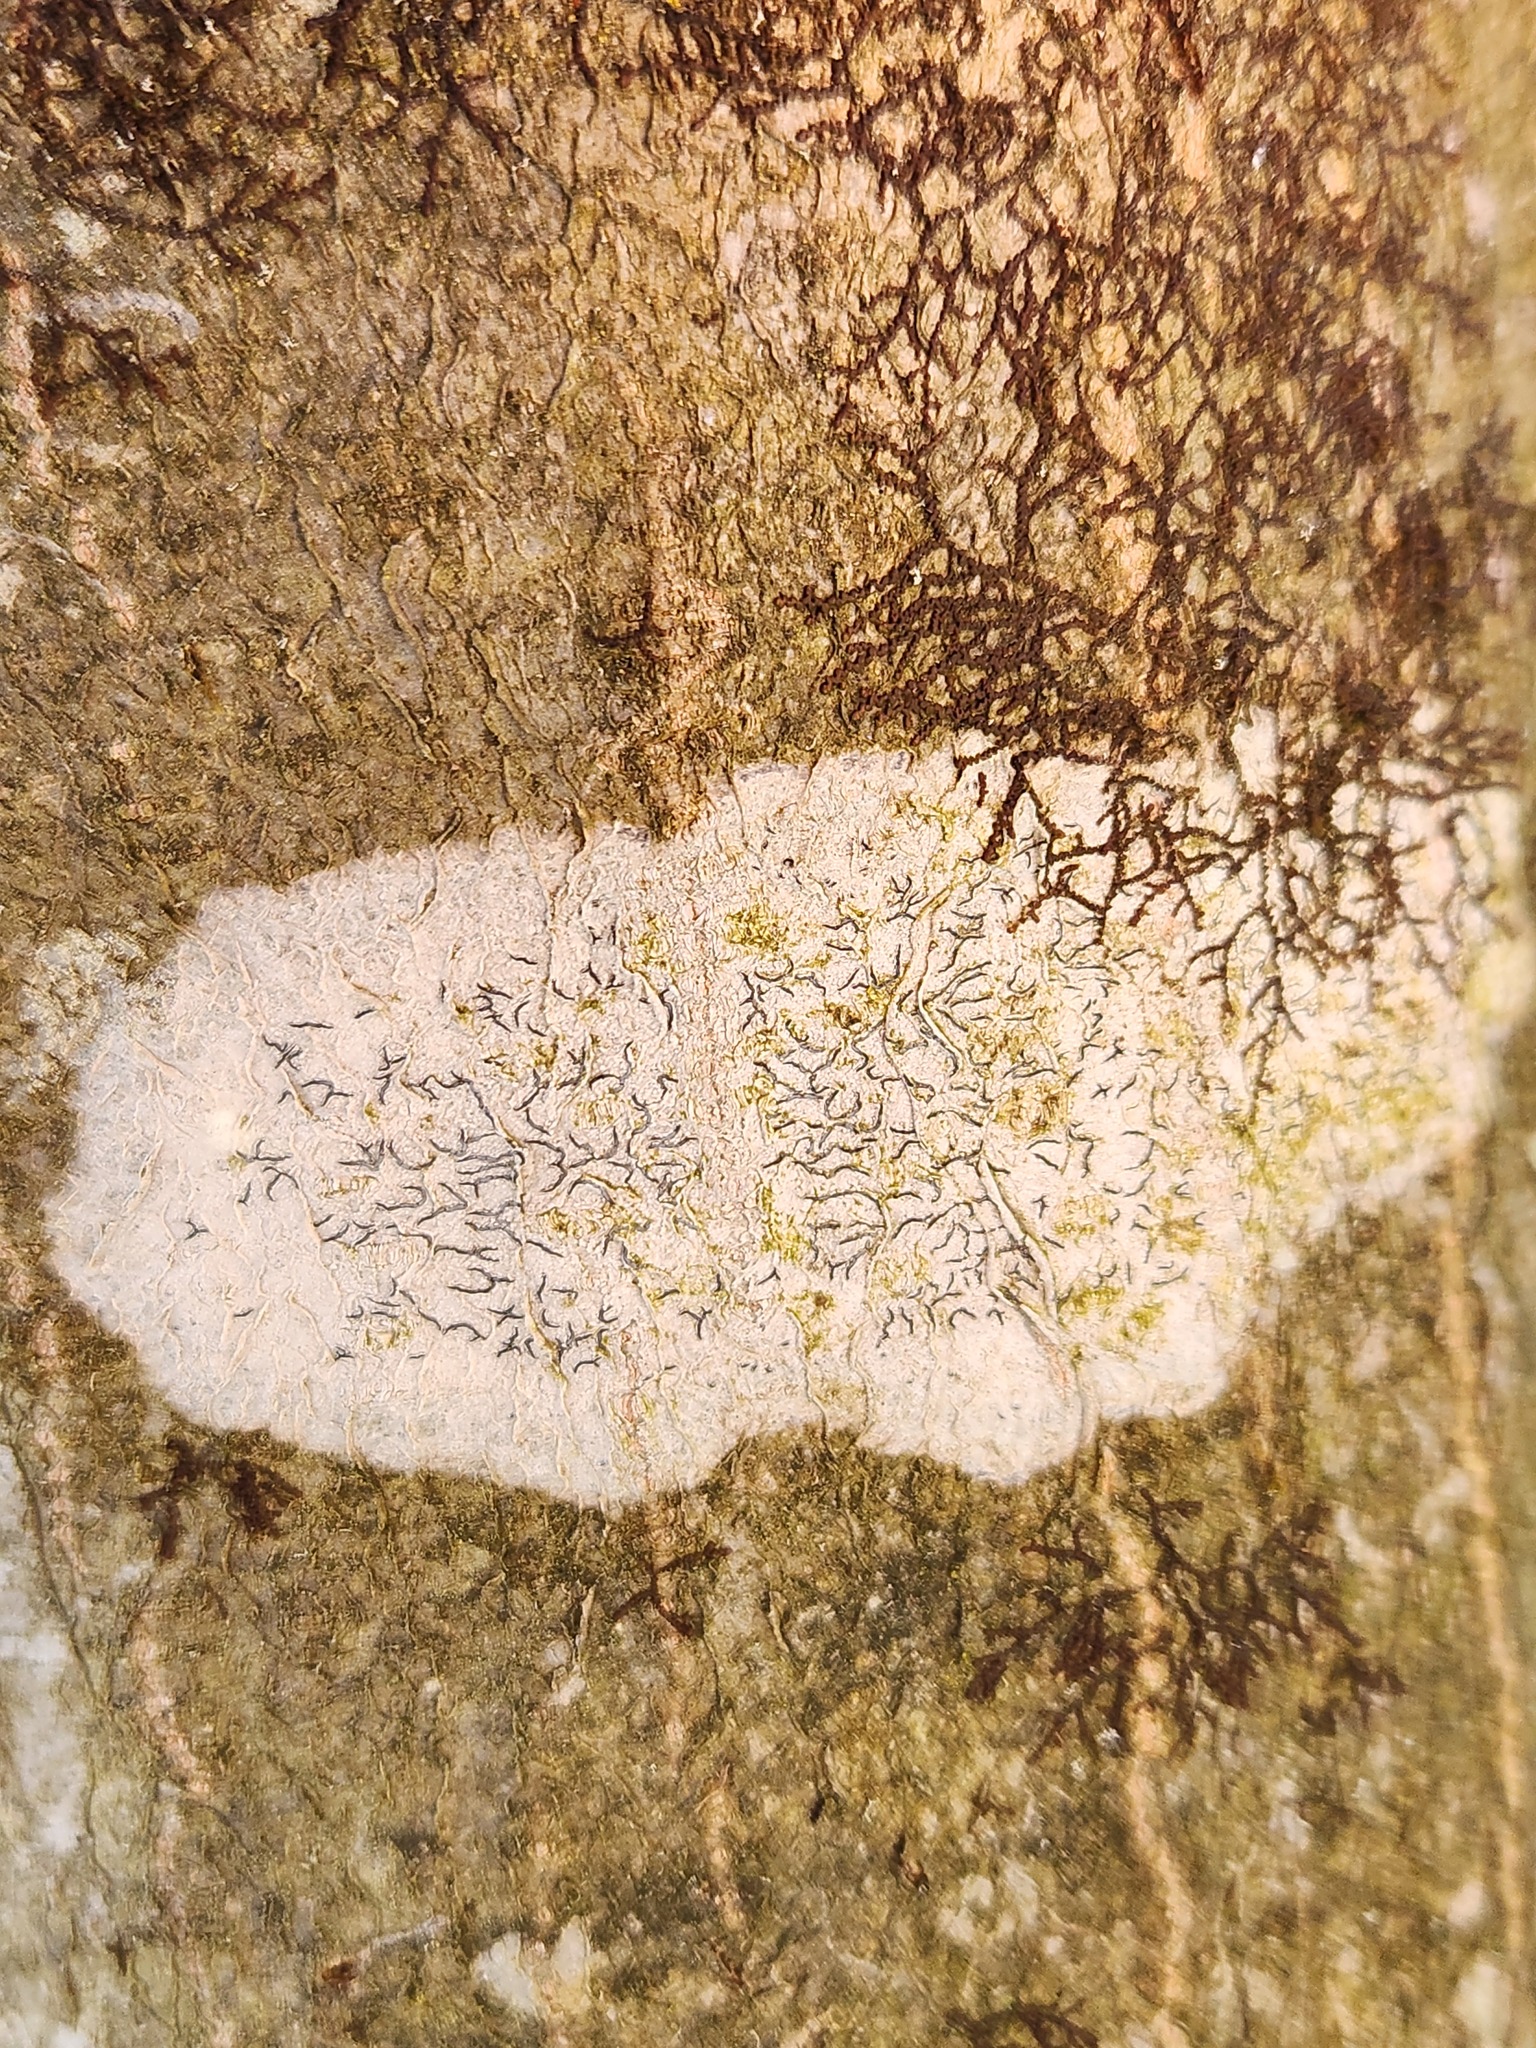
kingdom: Fungi
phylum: Ascomycota
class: Lecanoromycetes
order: Ostropales
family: Graphidaceae
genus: Graphis
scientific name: Graphis scripta
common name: Script lichen
